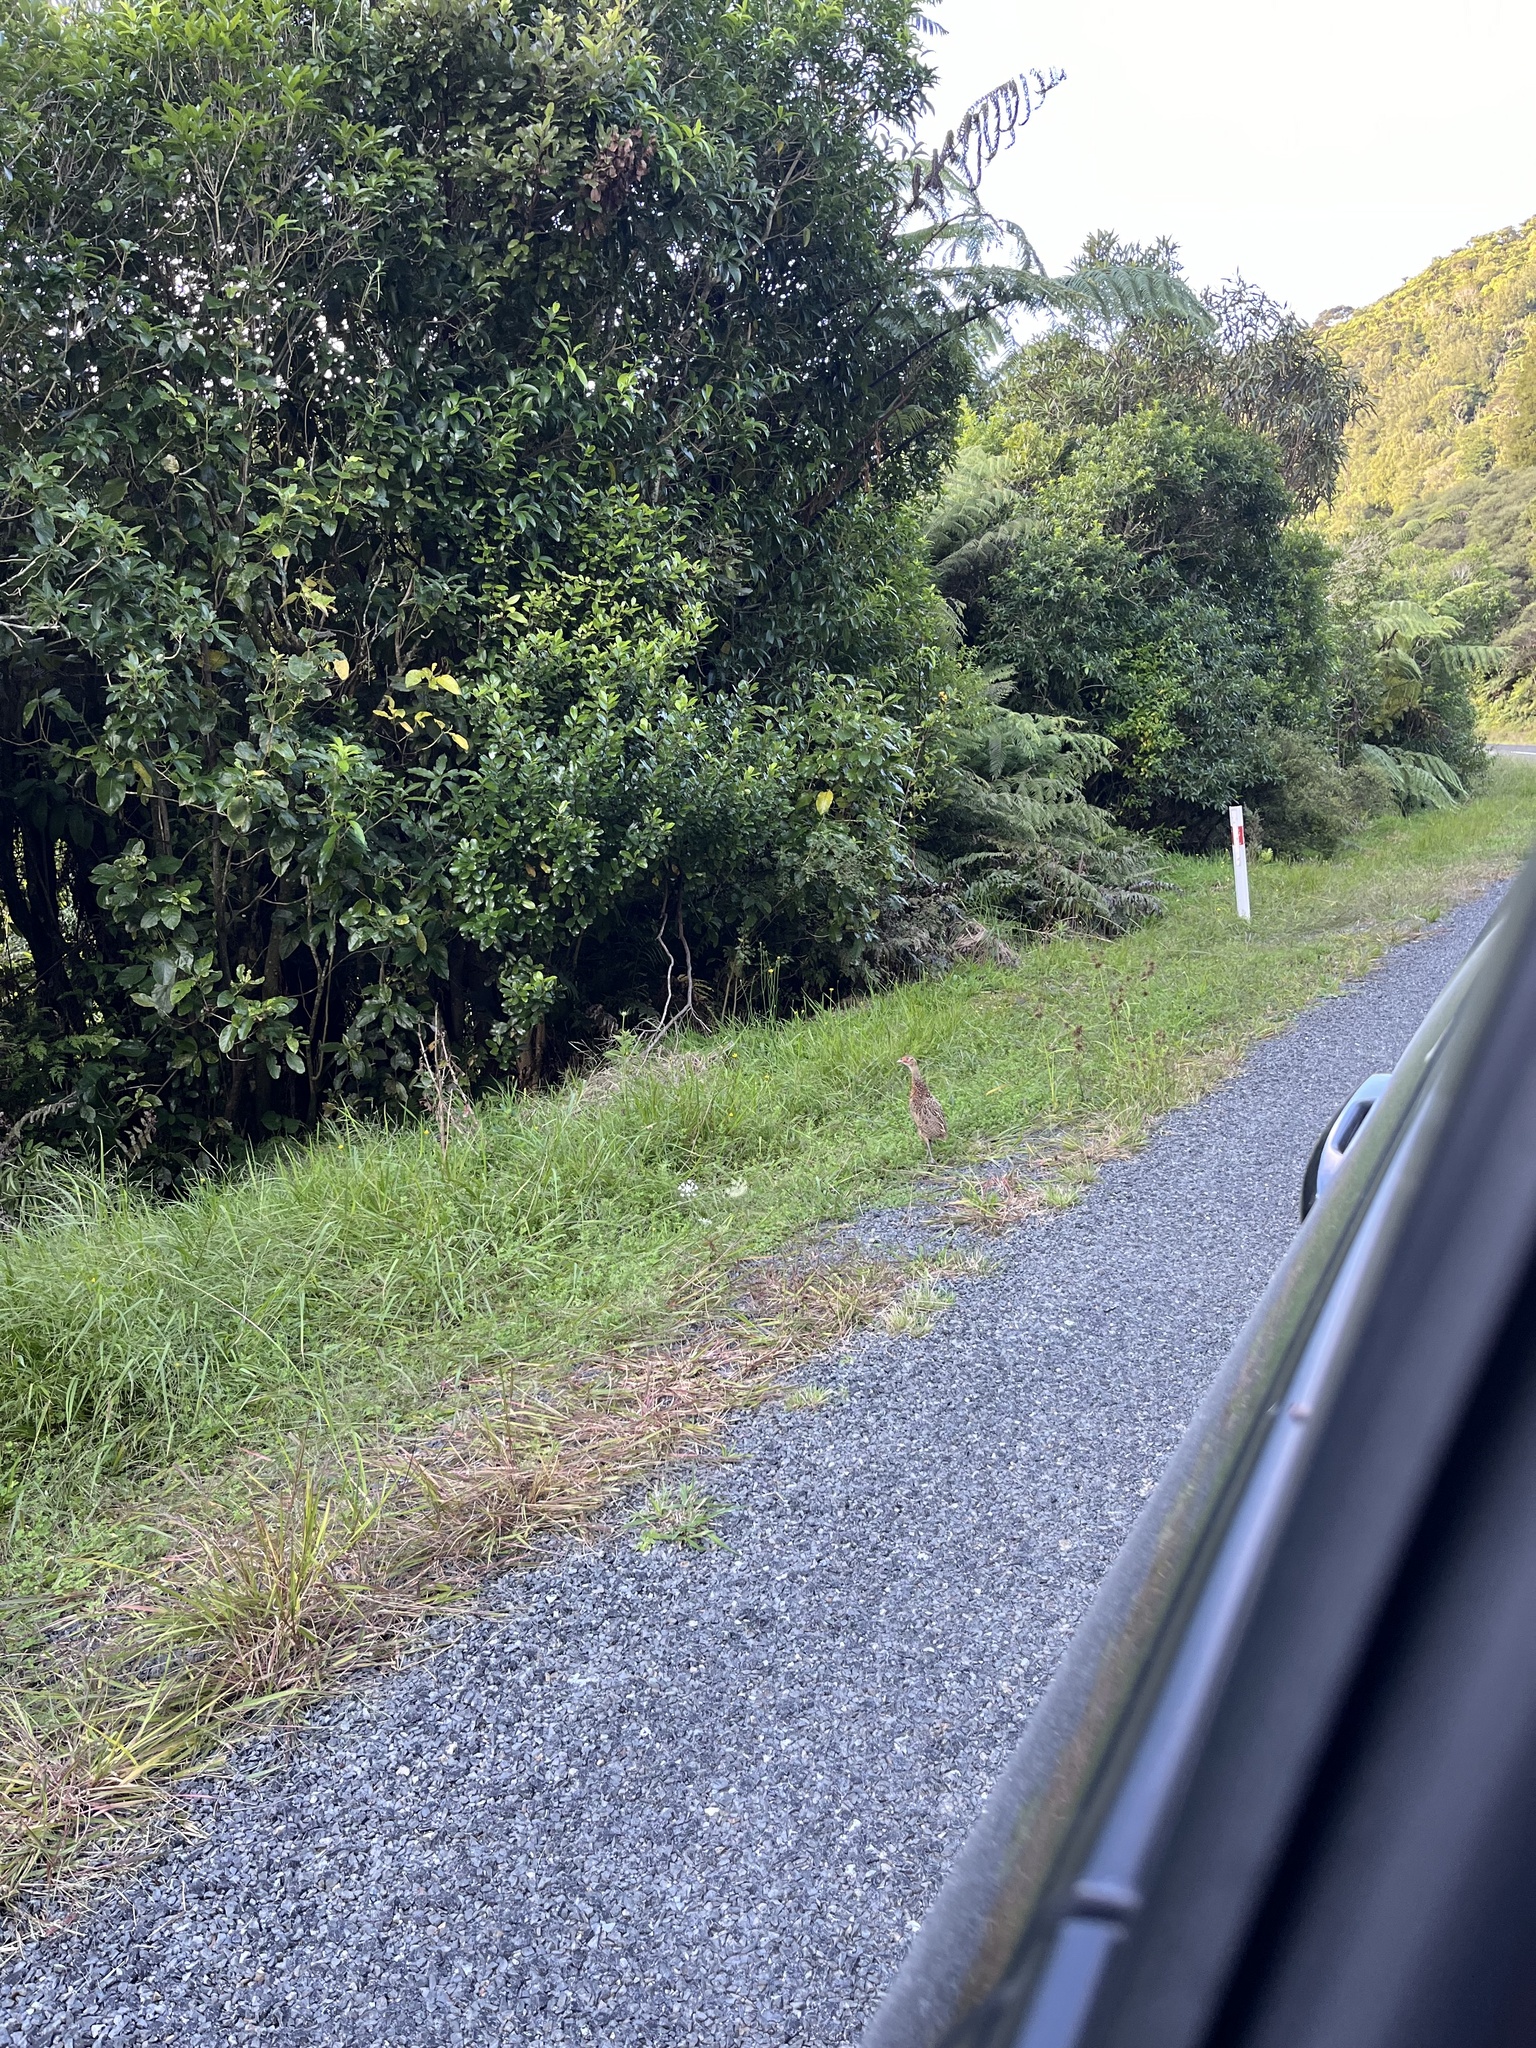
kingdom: Animalia
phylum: Chordata
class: Aves
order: Galliformes
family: Phasianidae
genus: Phasianus
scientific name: Phasianus colchicus
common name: Common pheasant
